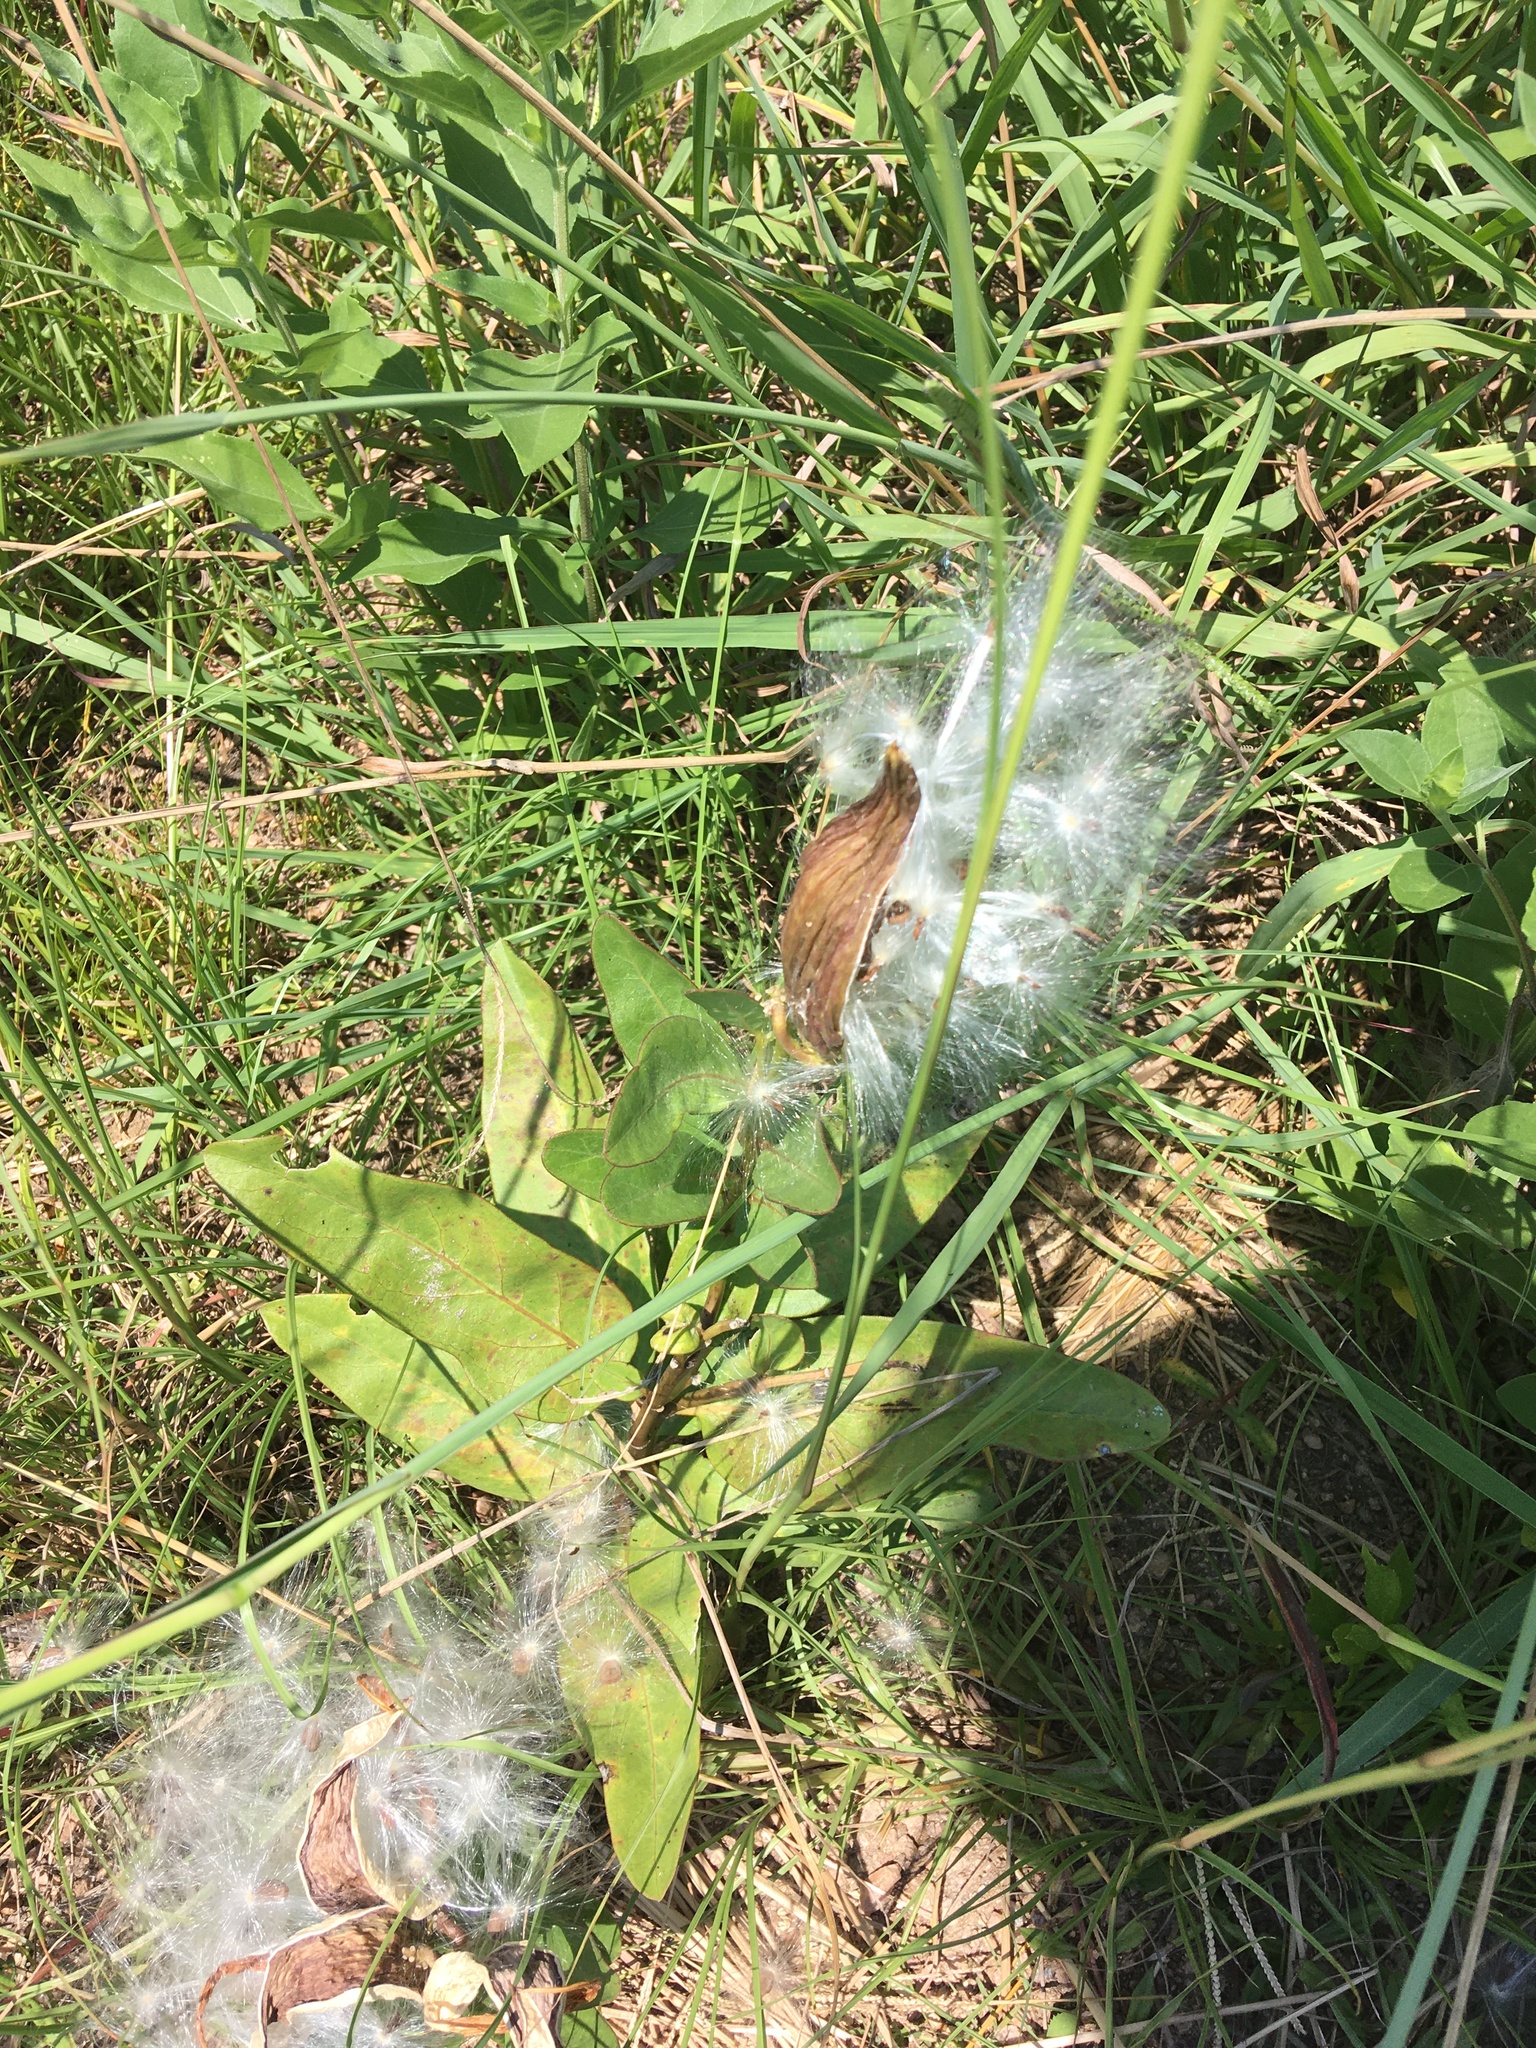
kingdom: Plantae
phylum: Tracheophyta
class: Magnoliopsida
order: Gentianales
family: Apocynaceae
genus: Asclepias
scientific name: Asclepias viridis
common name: Antelope-horns
